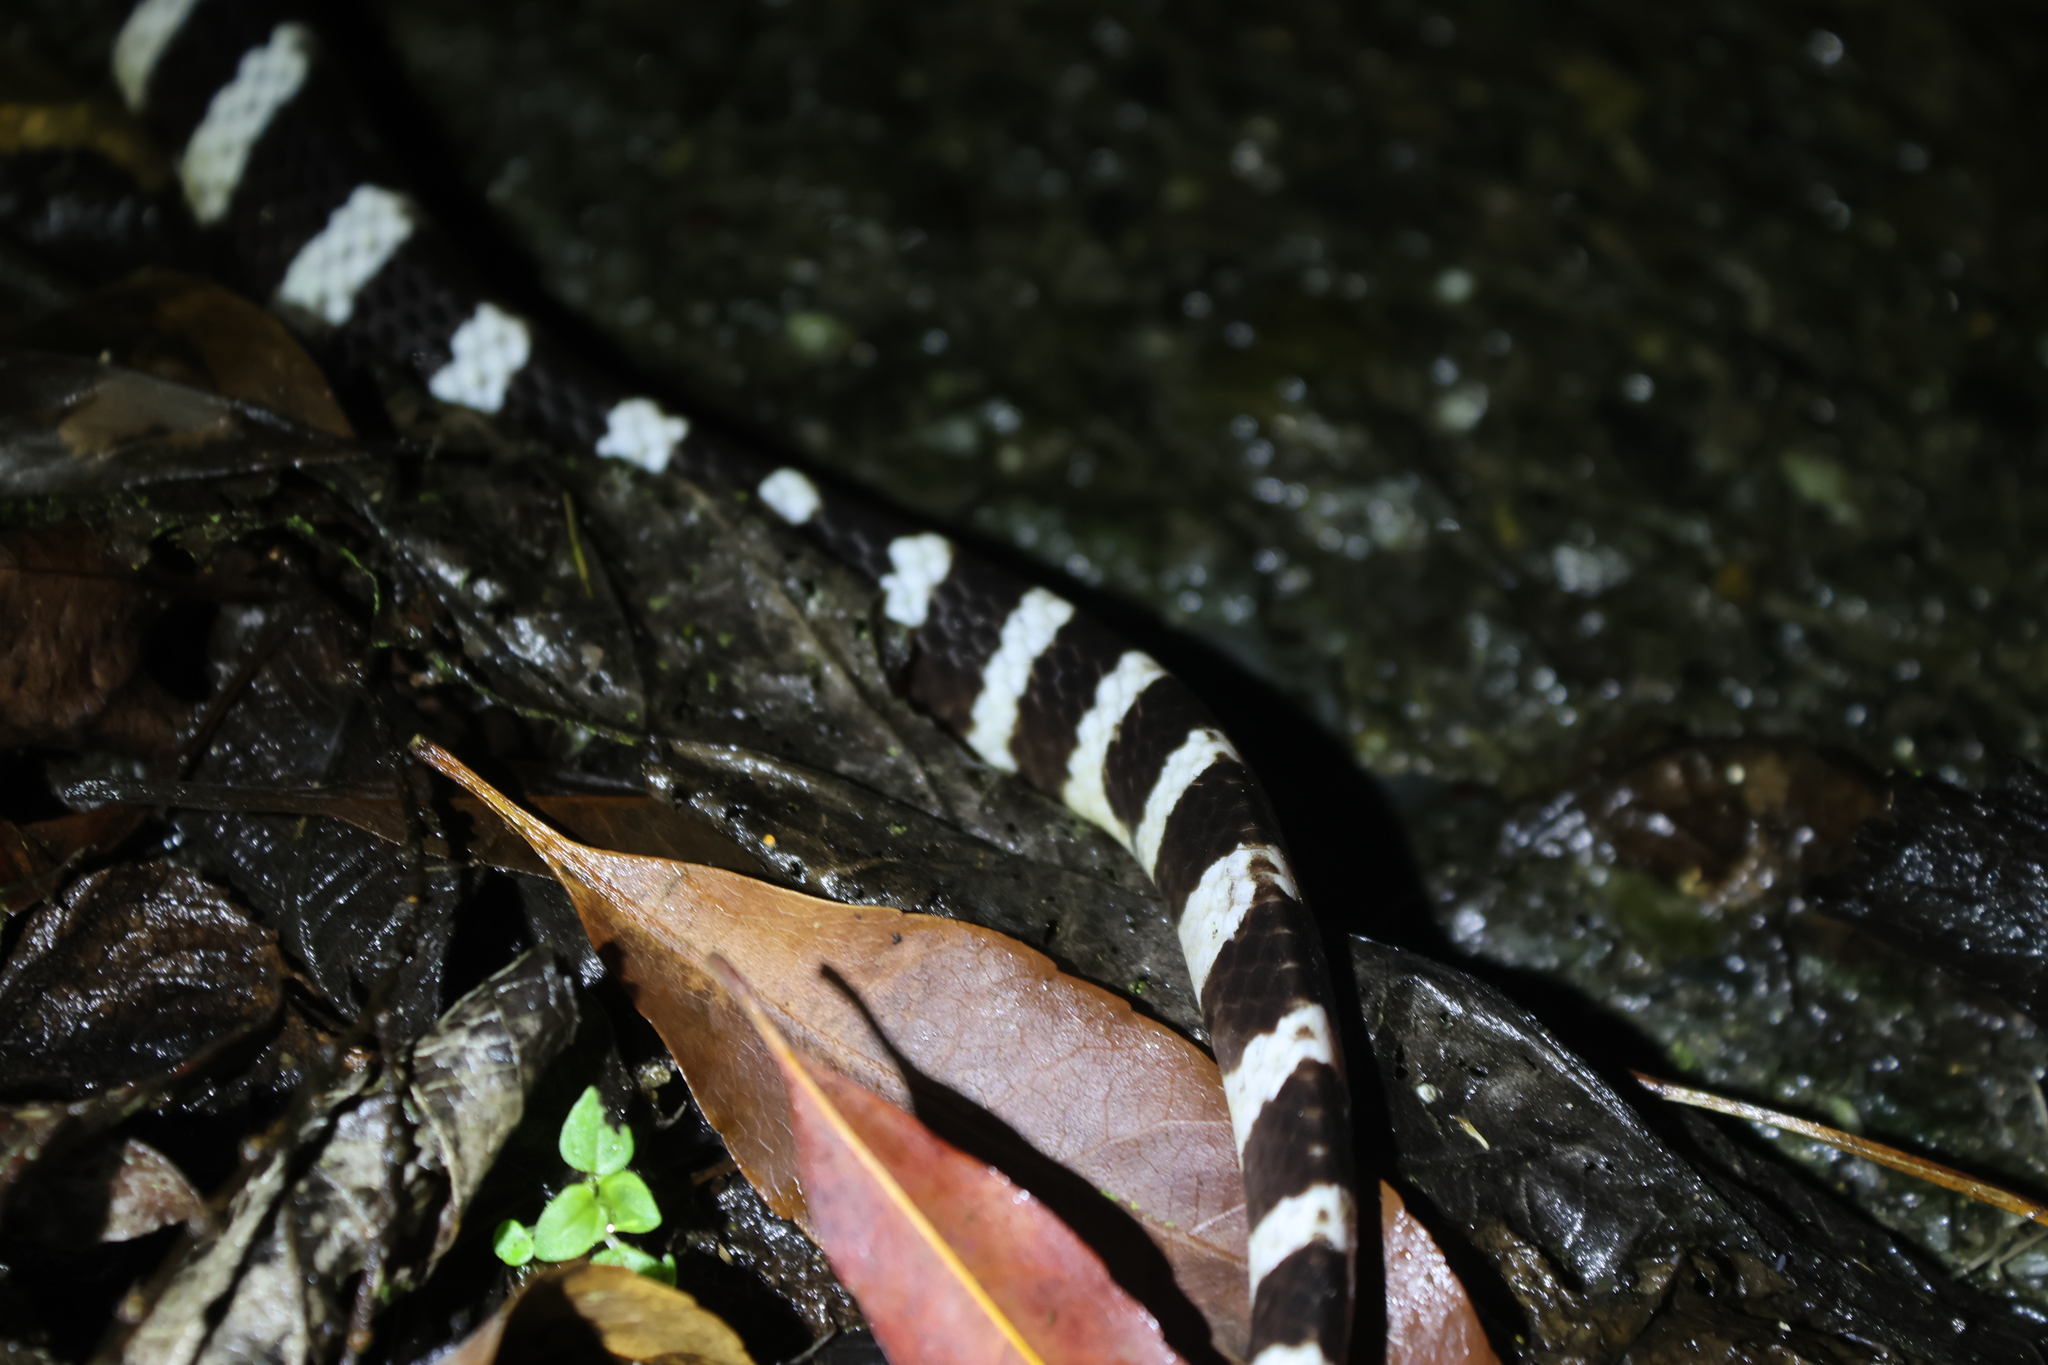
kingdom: Animalia
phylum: Chordata
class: Squamata
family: Elapidae
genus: Bungarus
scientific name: Bungarus multicinctus
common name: Many-banded krait
